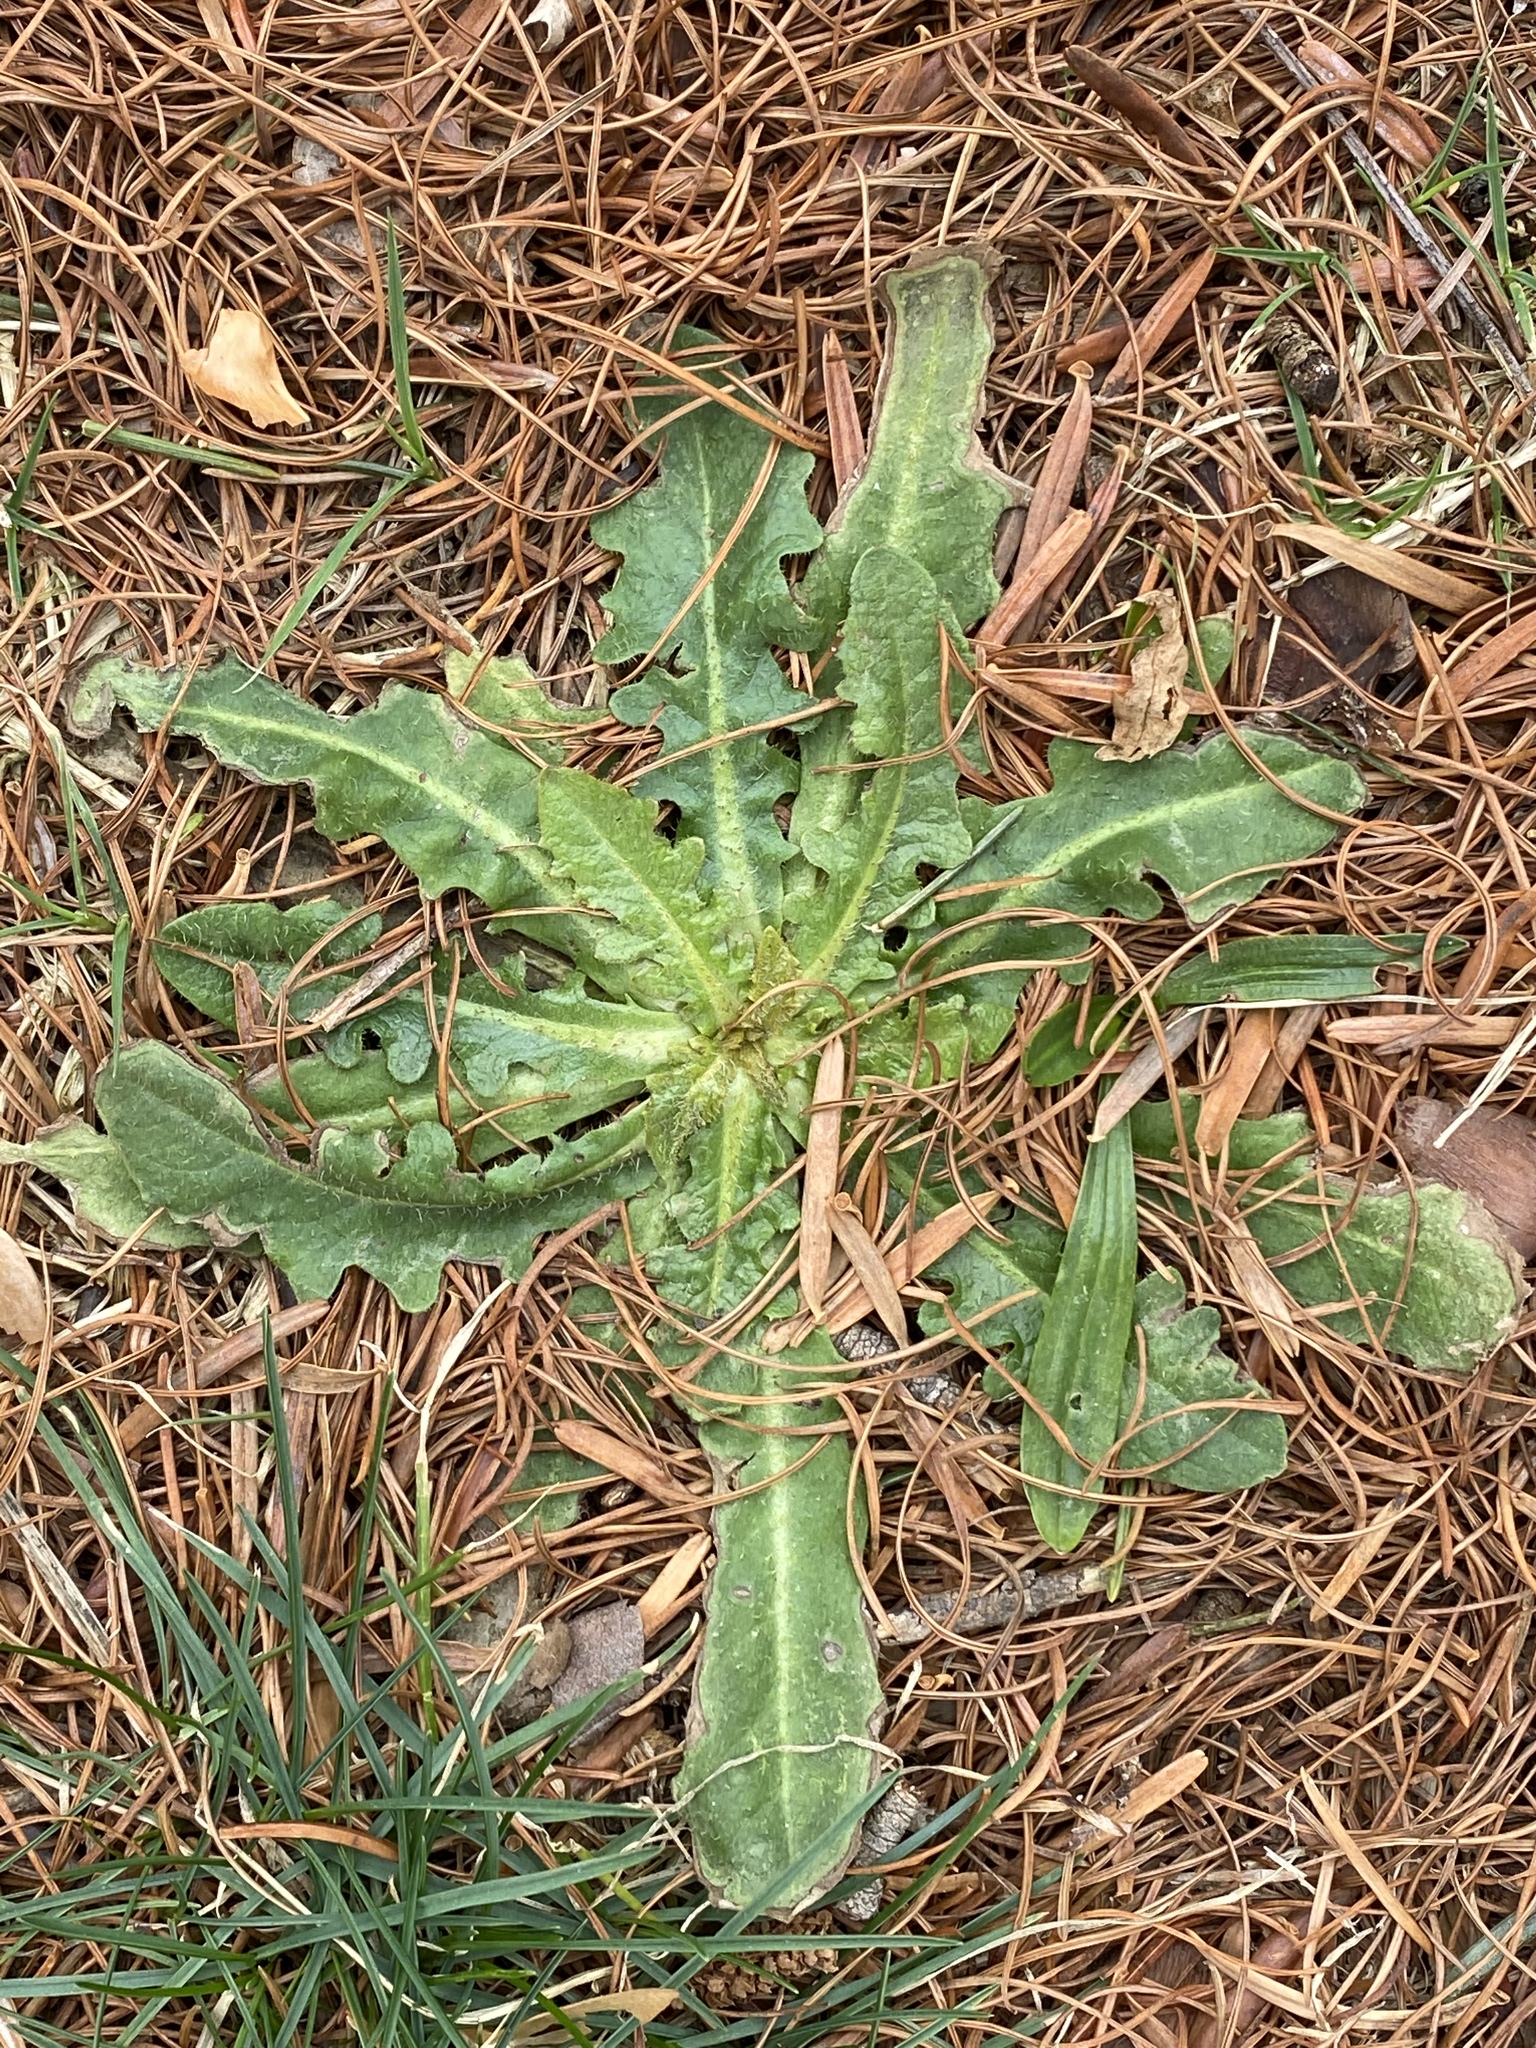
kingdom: Plantae
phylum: Tracheophyta
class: Magnoliopsida
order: Asterales
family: Asteraceae
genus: Hypochaeris
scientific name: Hypochaeris radicata
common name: Flatweed
